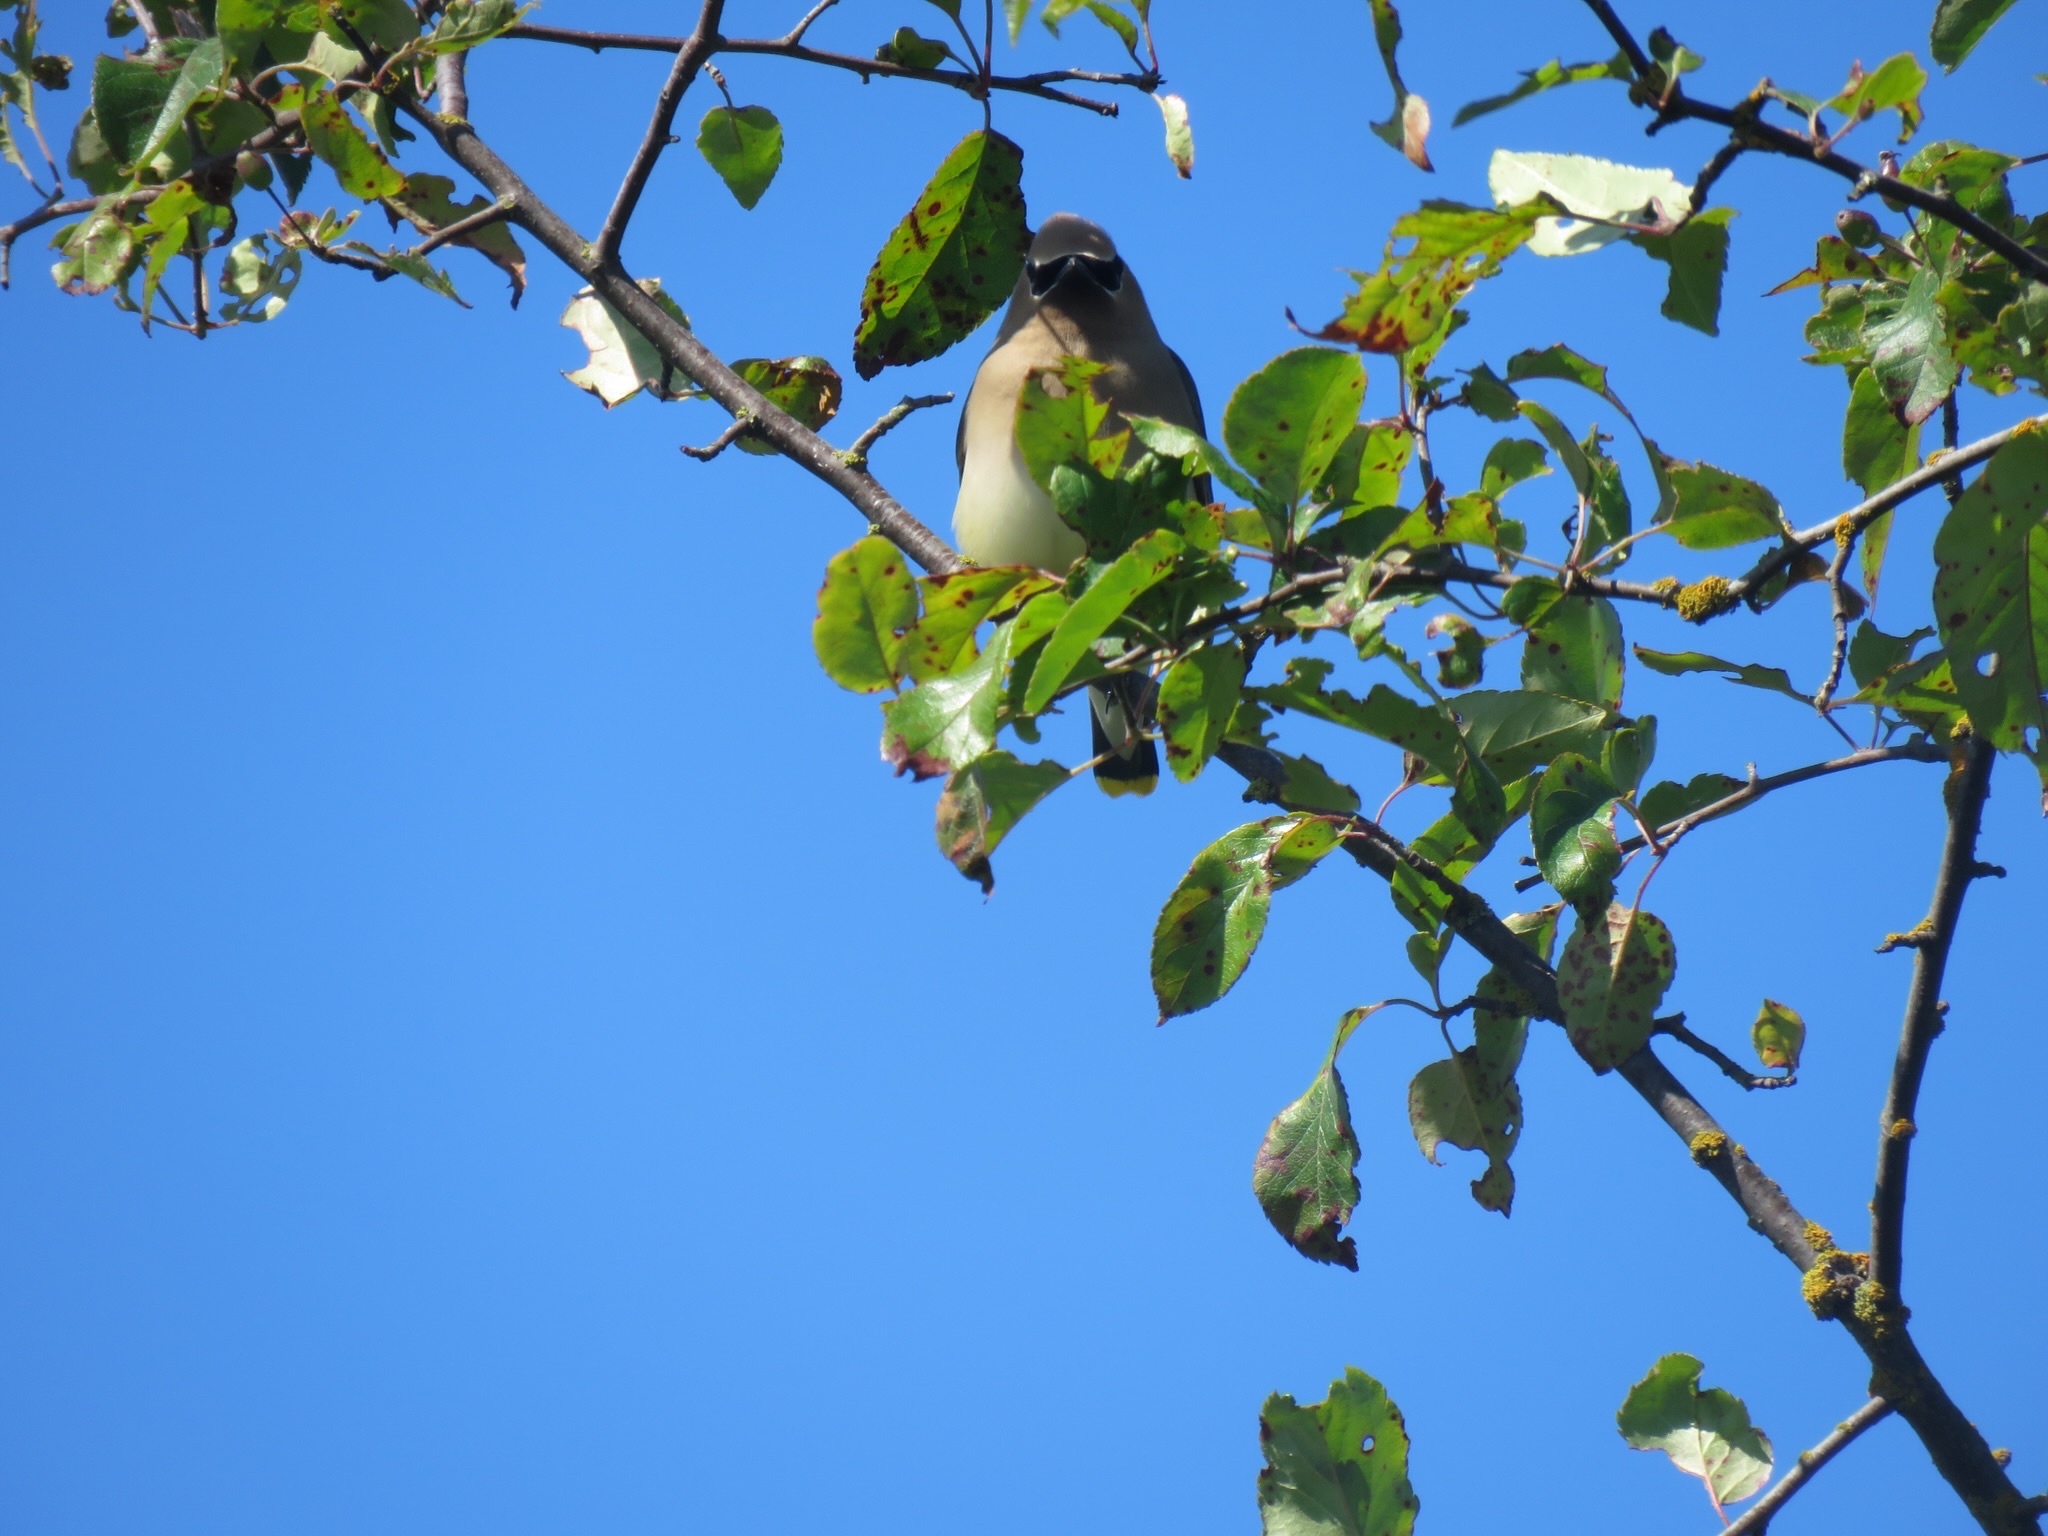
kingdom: Animalia
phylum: Chordata
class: Aves
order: Passeriformes
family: Bombycillidae
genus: Bombycilla
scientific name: Bombycilla cedrorum
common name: Cedar waxwing
